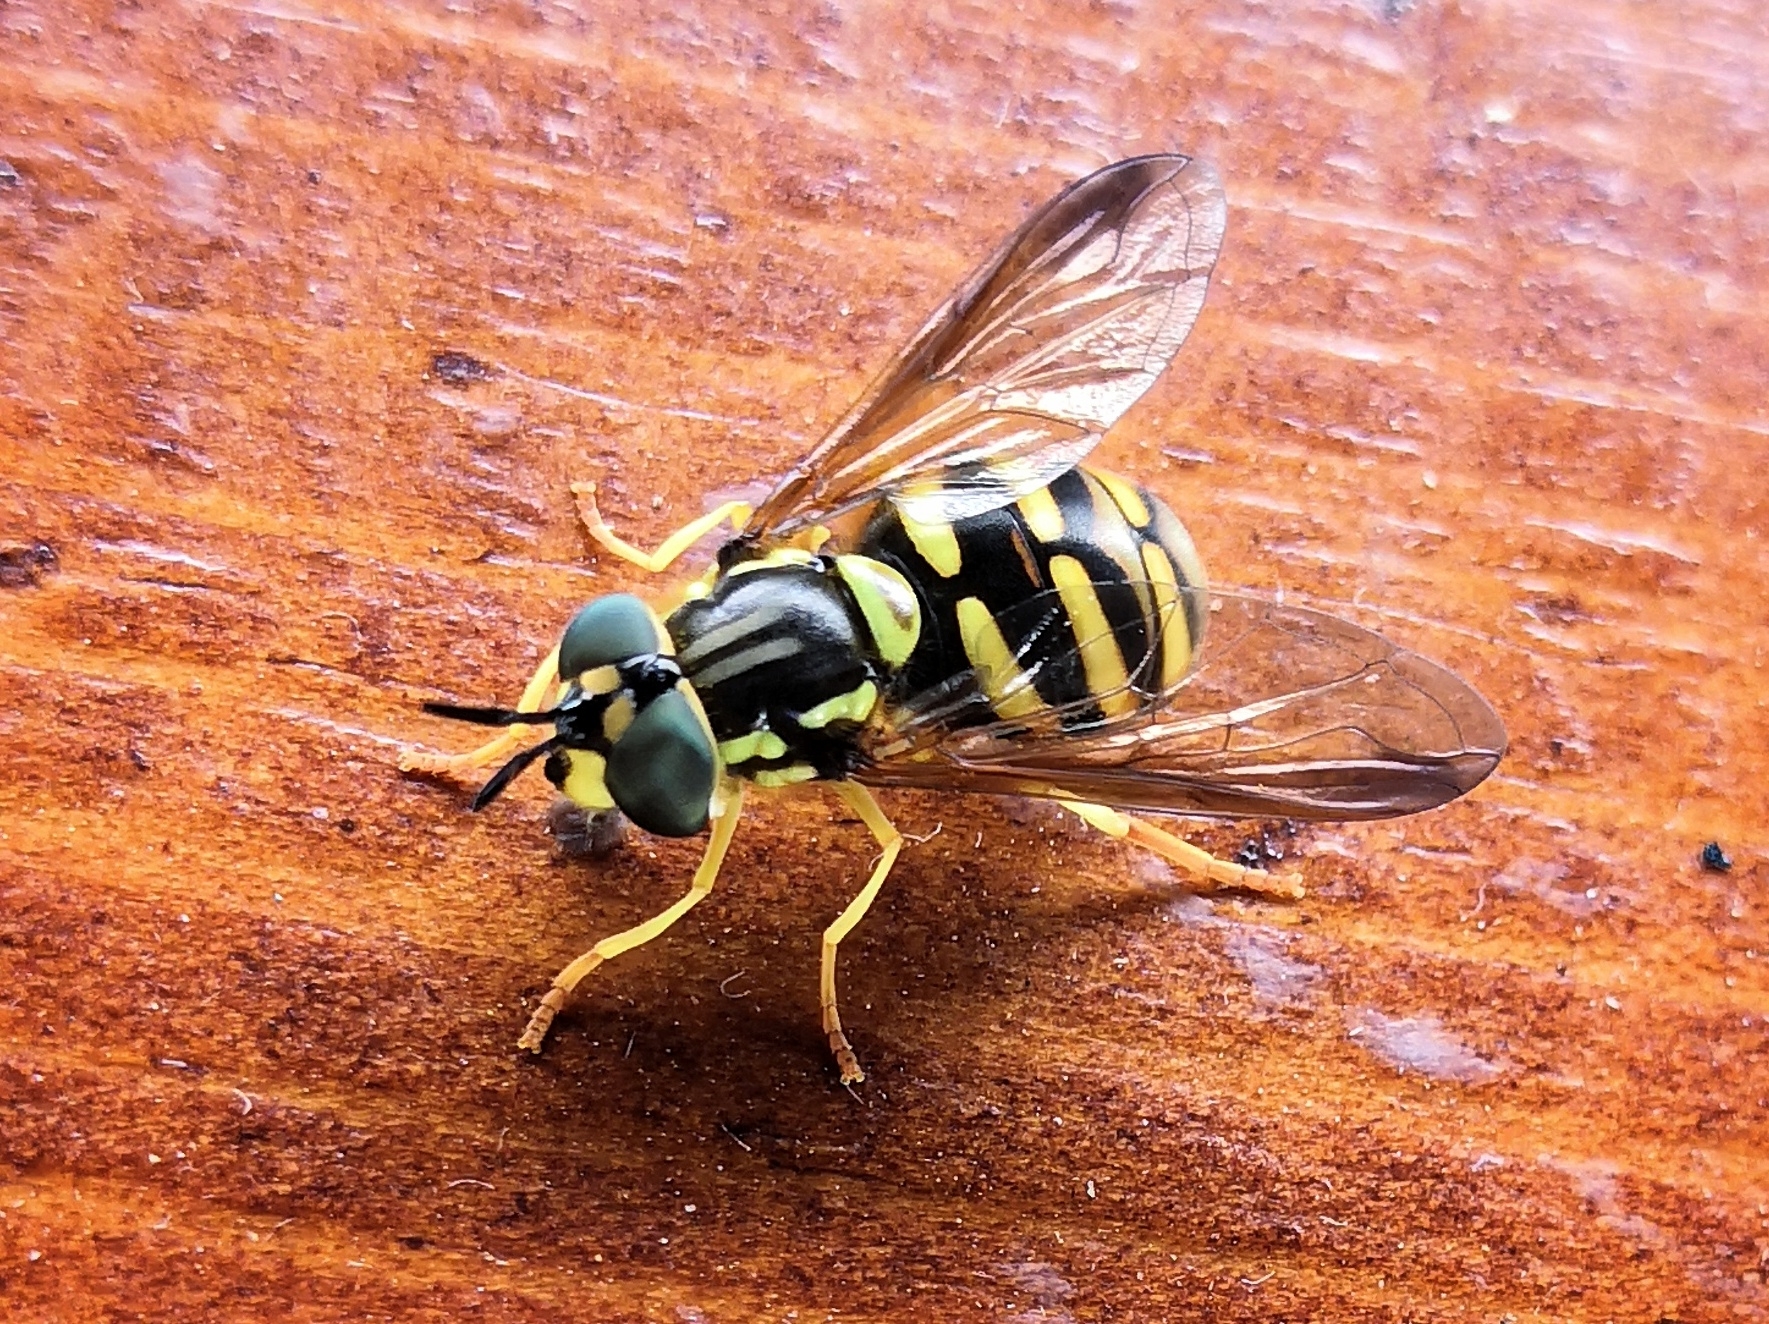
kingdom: Animalia
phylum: Arthropoda
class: Insecta
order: Diptera
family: Syrphidae
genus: Chrysotoxum
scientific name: Chrysotoxum intermedium
